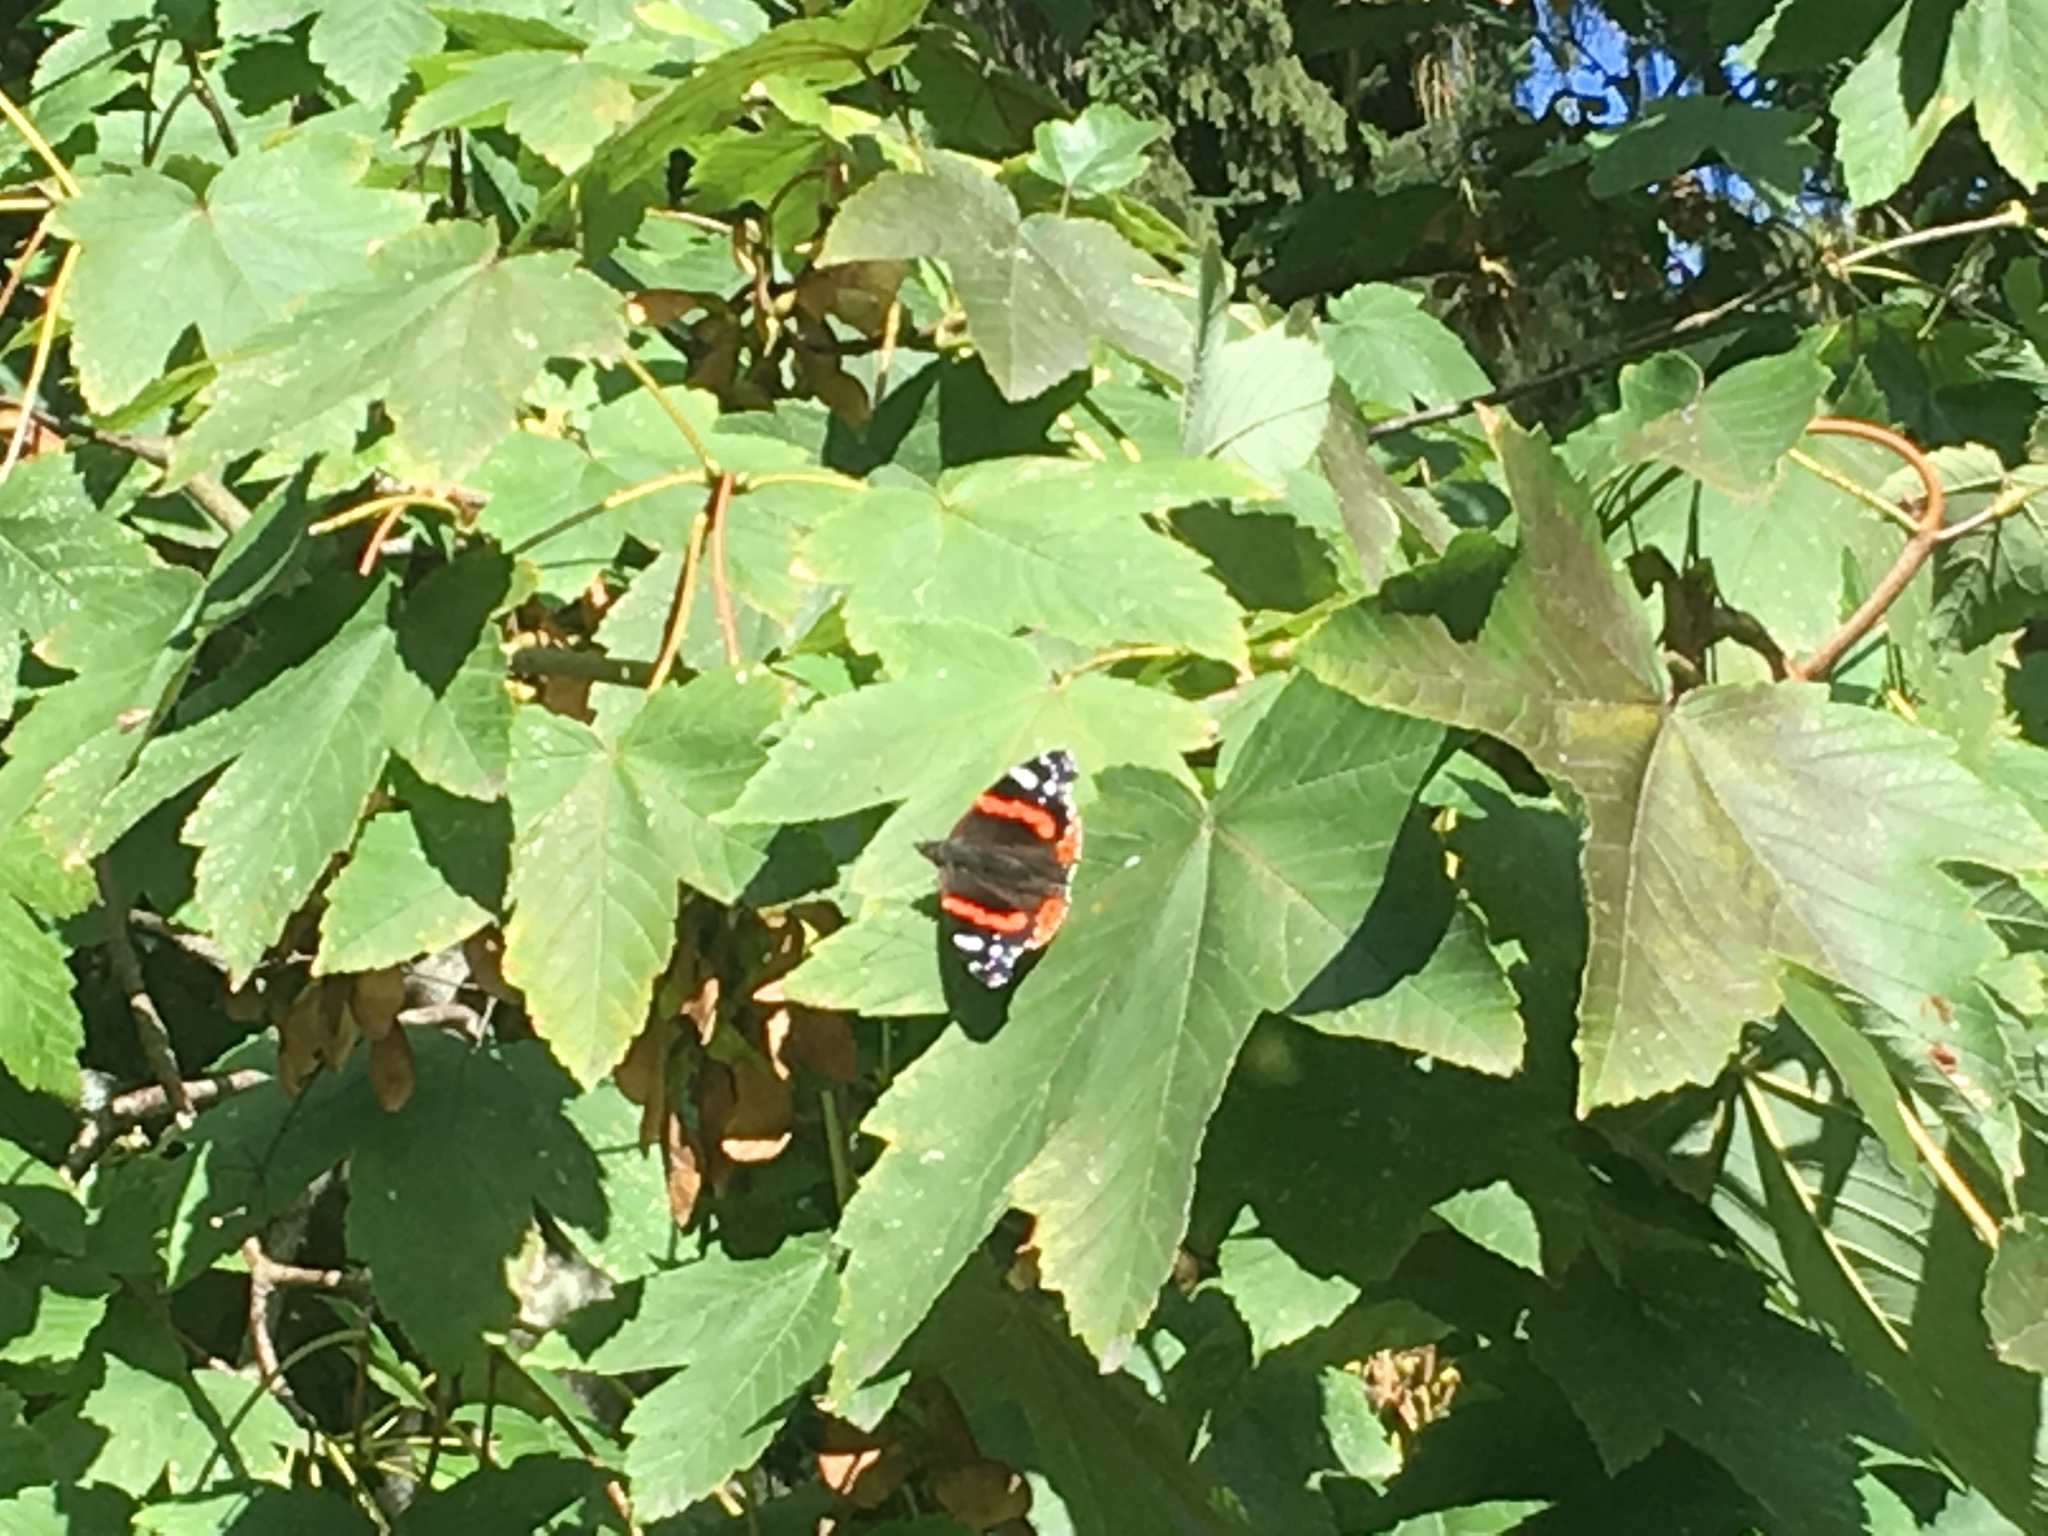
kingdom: Animalia
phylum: Arthropoda
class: Insecta
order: Lepidoptera
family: Nymphalidae
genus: Vanessa
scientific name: Vanessa atalanta
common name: Red admiral
